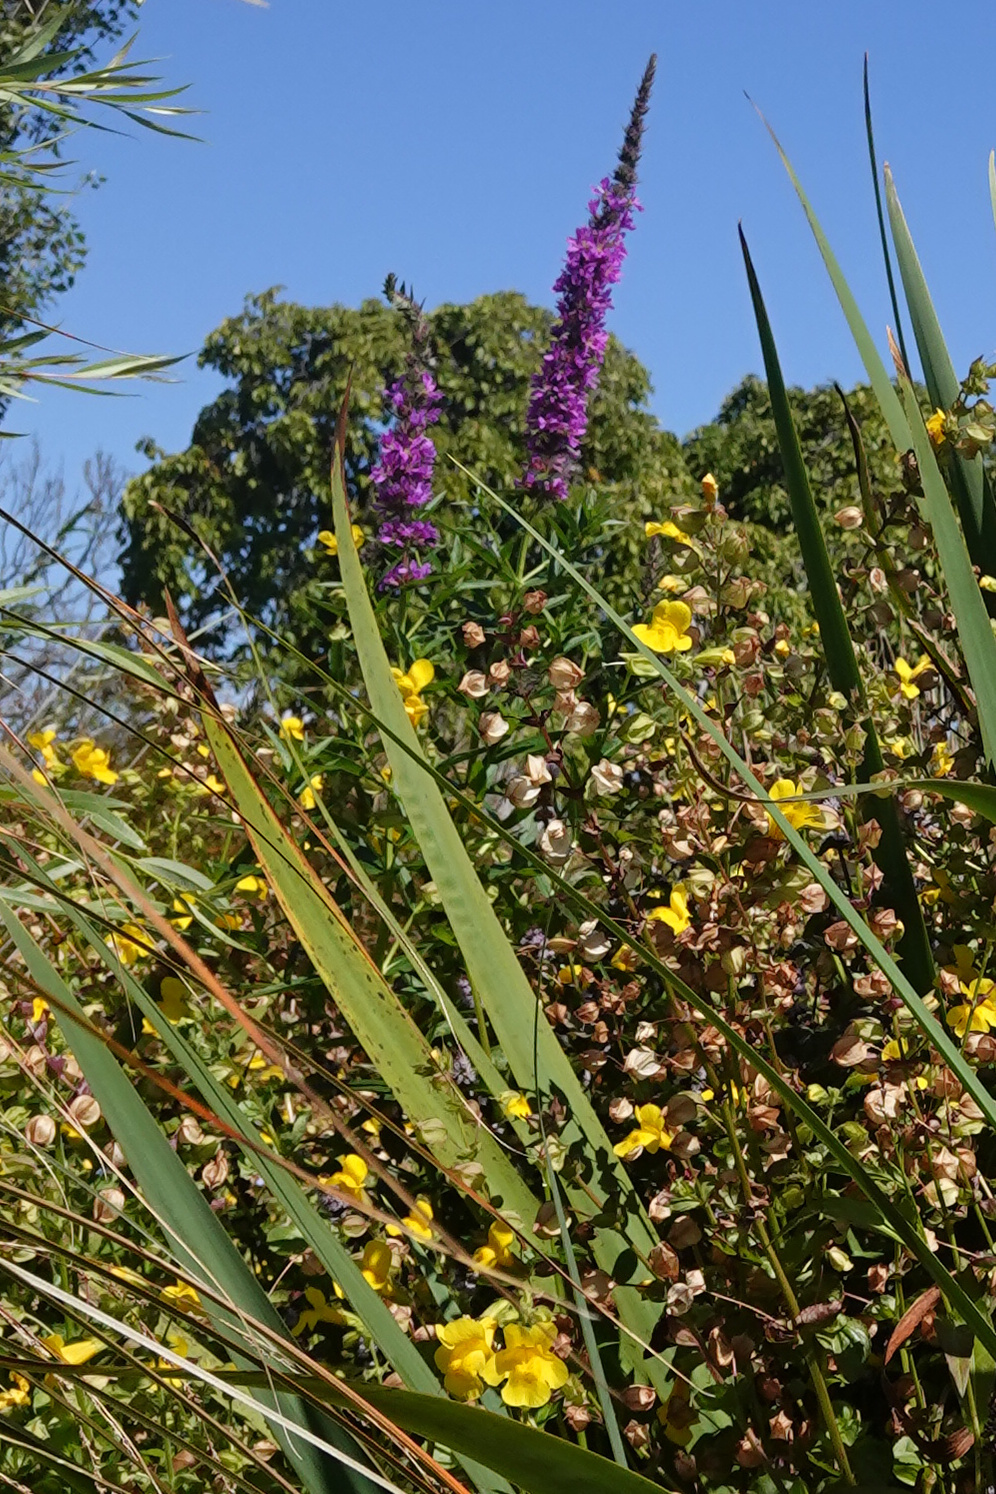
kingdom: Plantae
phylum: Tracheophyta
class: Magnoliopsida
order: Myrtales
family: Lythraceae
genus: Lythrum
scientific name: Lythrum salicaria
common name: Purple loosestrife
